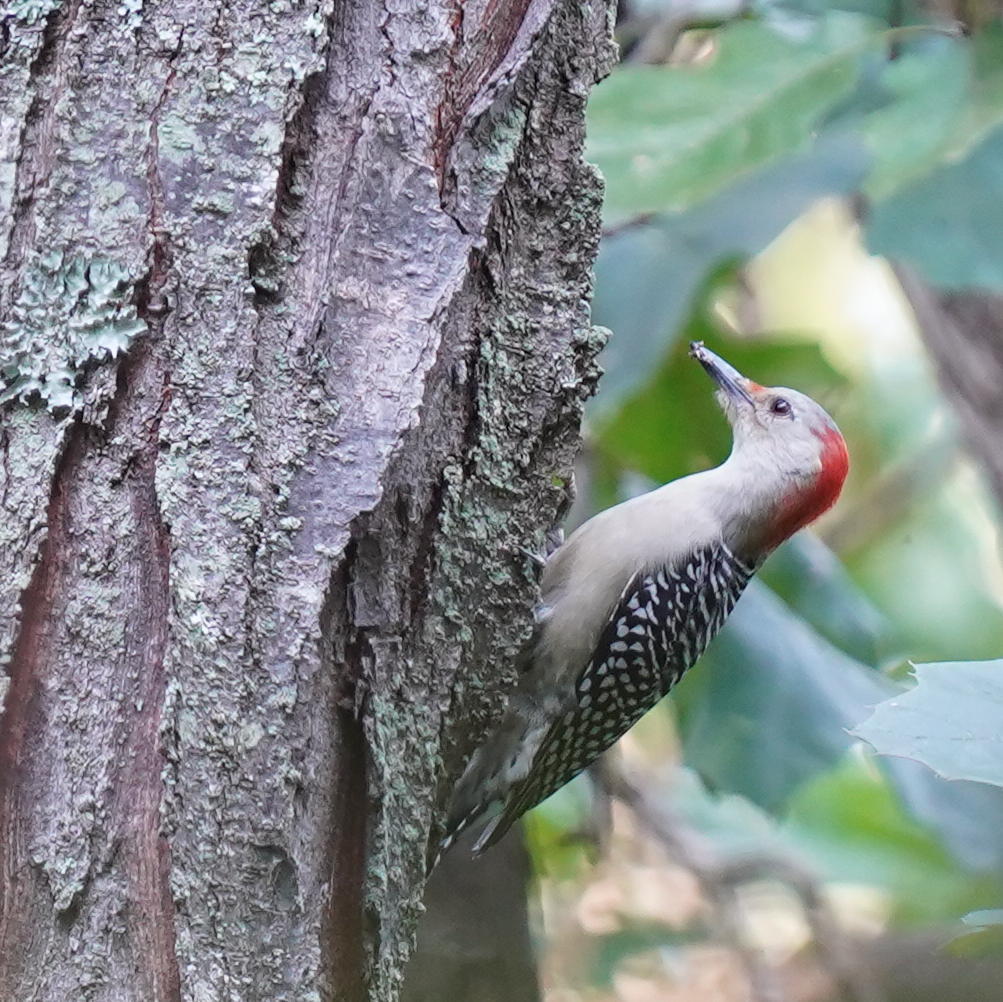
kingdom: Animalia
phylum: Chordata
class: Aves
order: Piciformes
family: Picidae
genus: Melanerpes
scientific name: Melanerpes carolinus
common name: Red-bellied woodpecker
